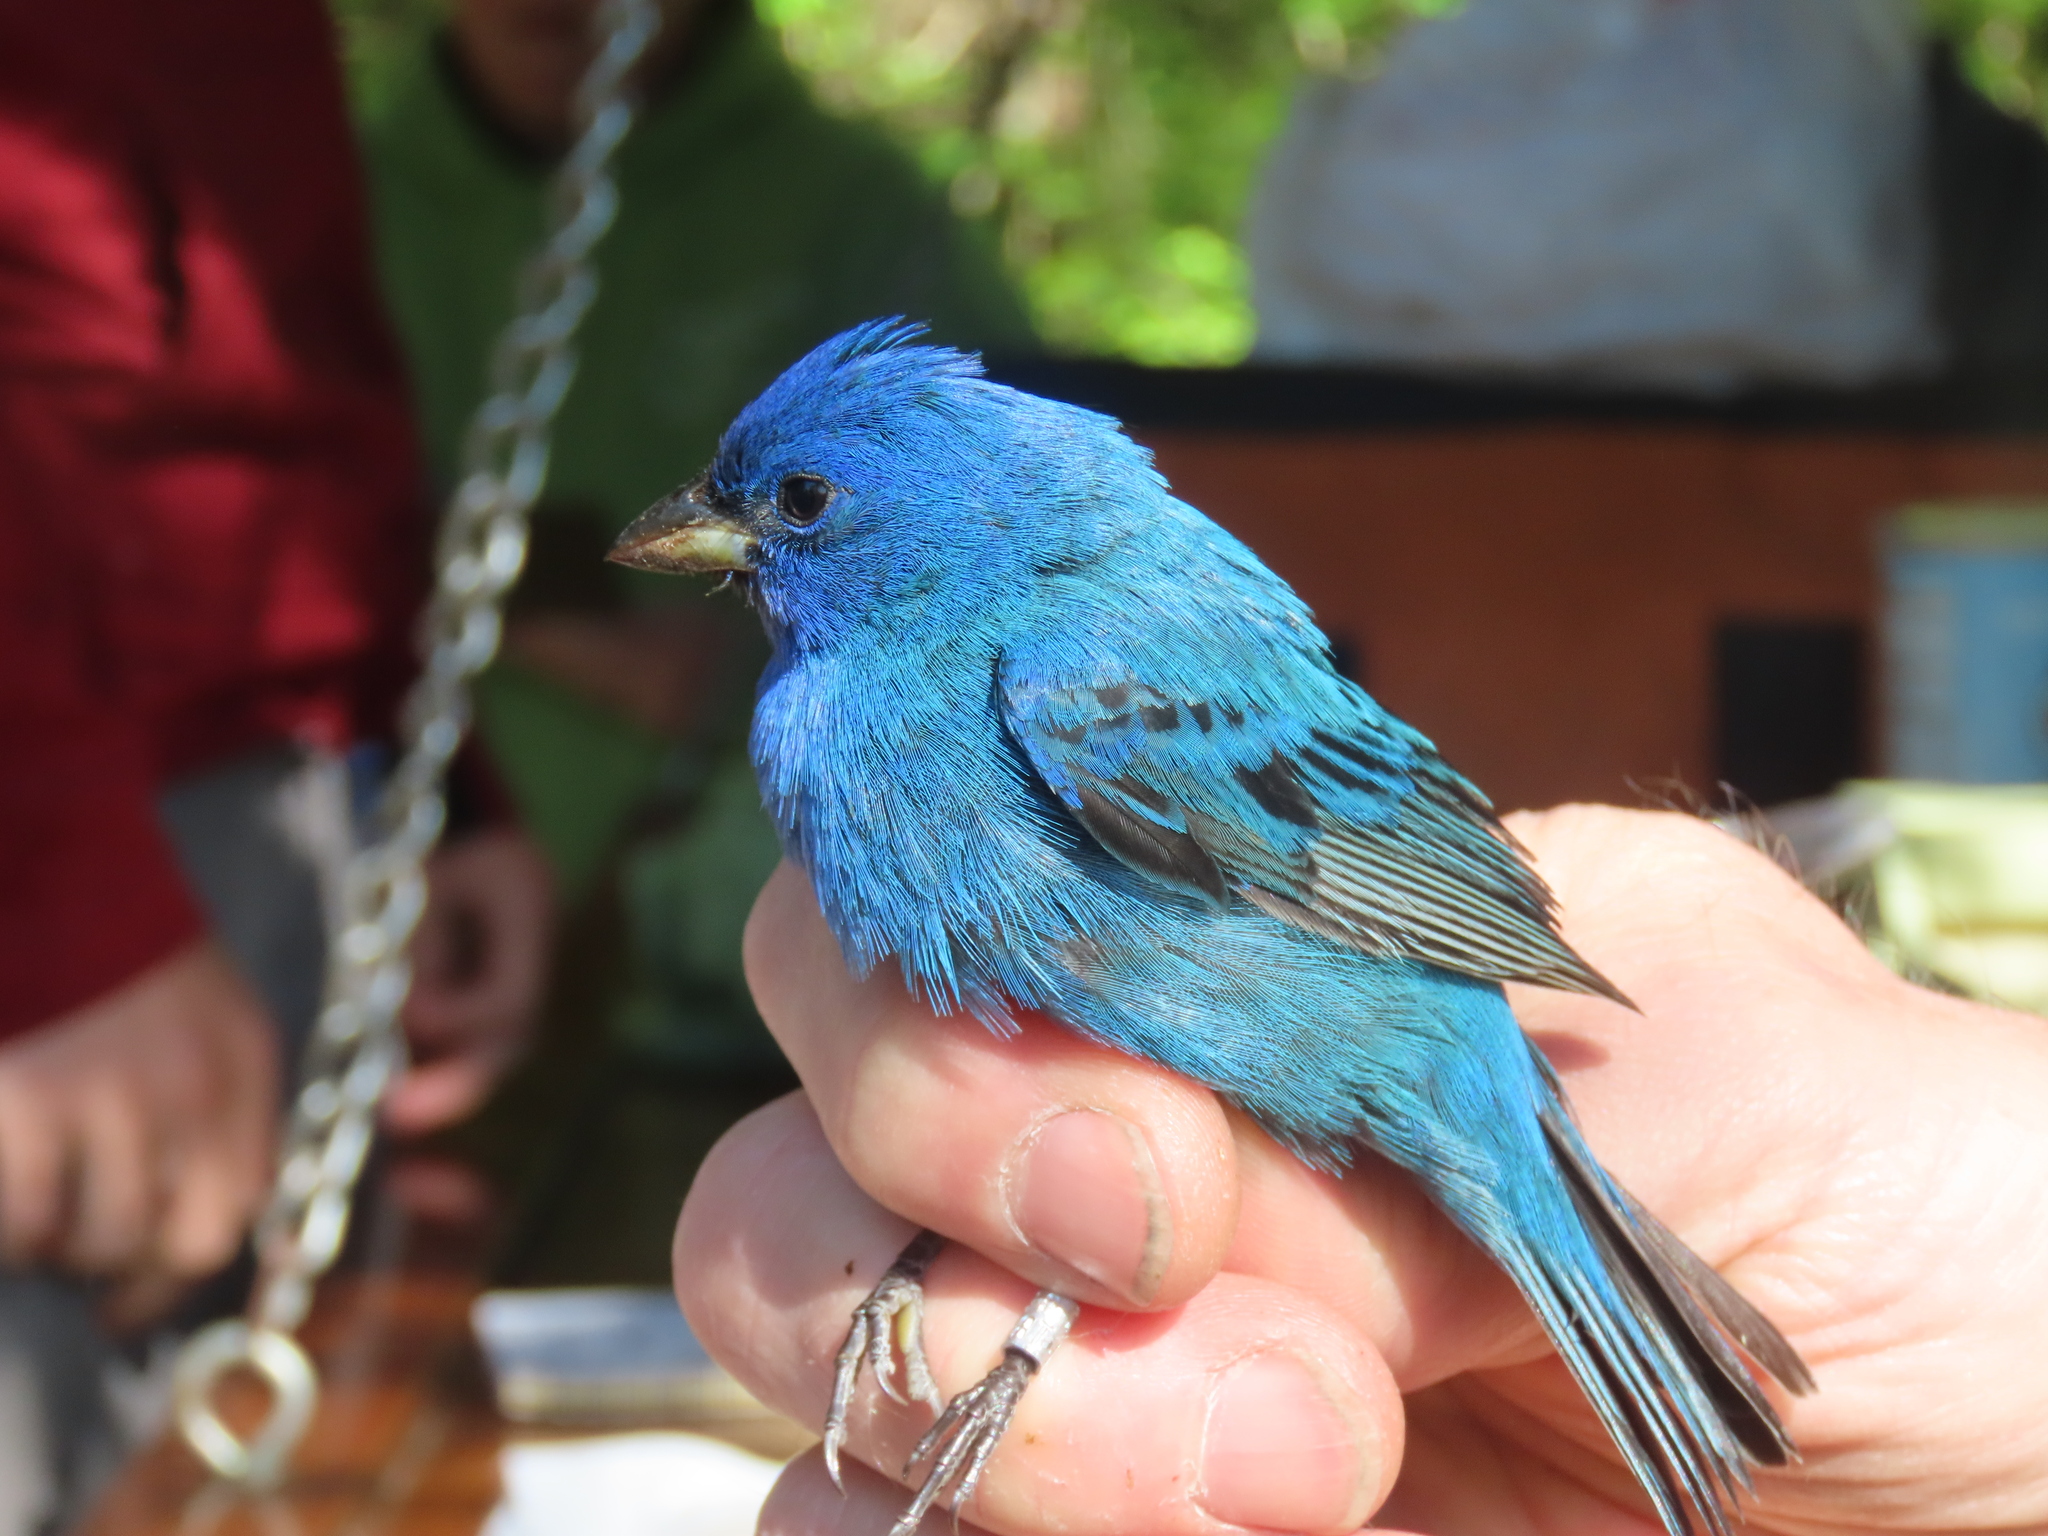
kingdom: Animalia
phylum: Chordata
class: Aves
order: Passeriformes
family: Cardinalidae
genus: Passerina
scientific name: Passerina cyanea
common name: Indigo bunting
